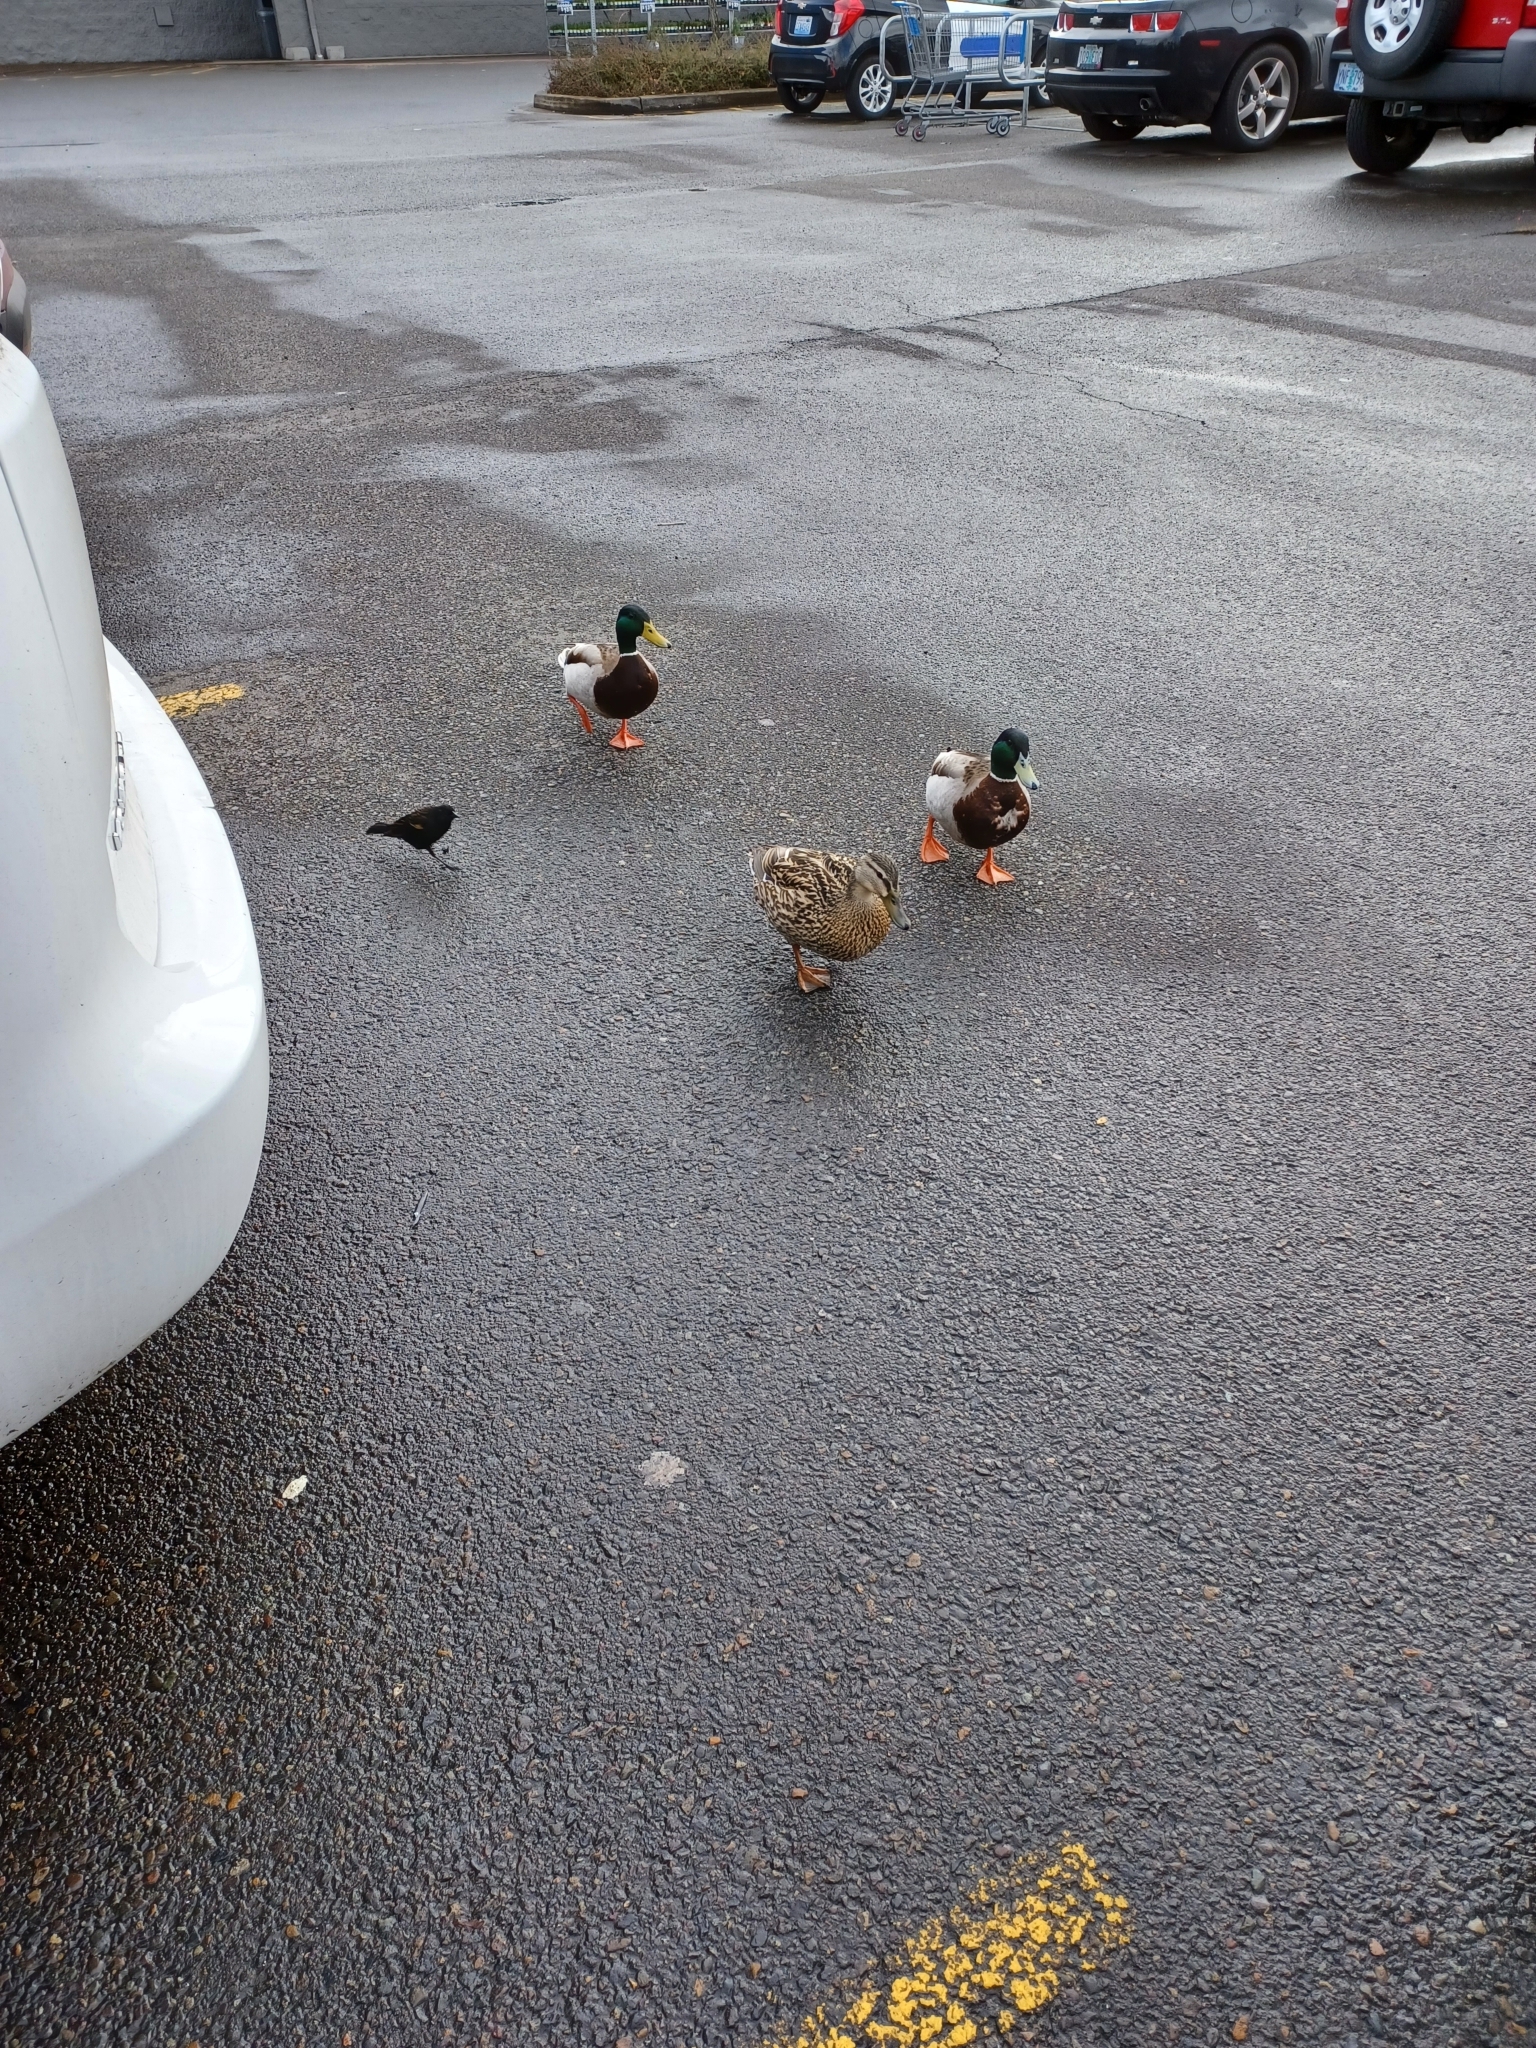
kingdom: Animalia
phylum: Chordata
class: Aves
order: Anseriformes
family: Anatidae
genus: Anas
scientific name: Anas platyrhynchos
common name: Mallard
